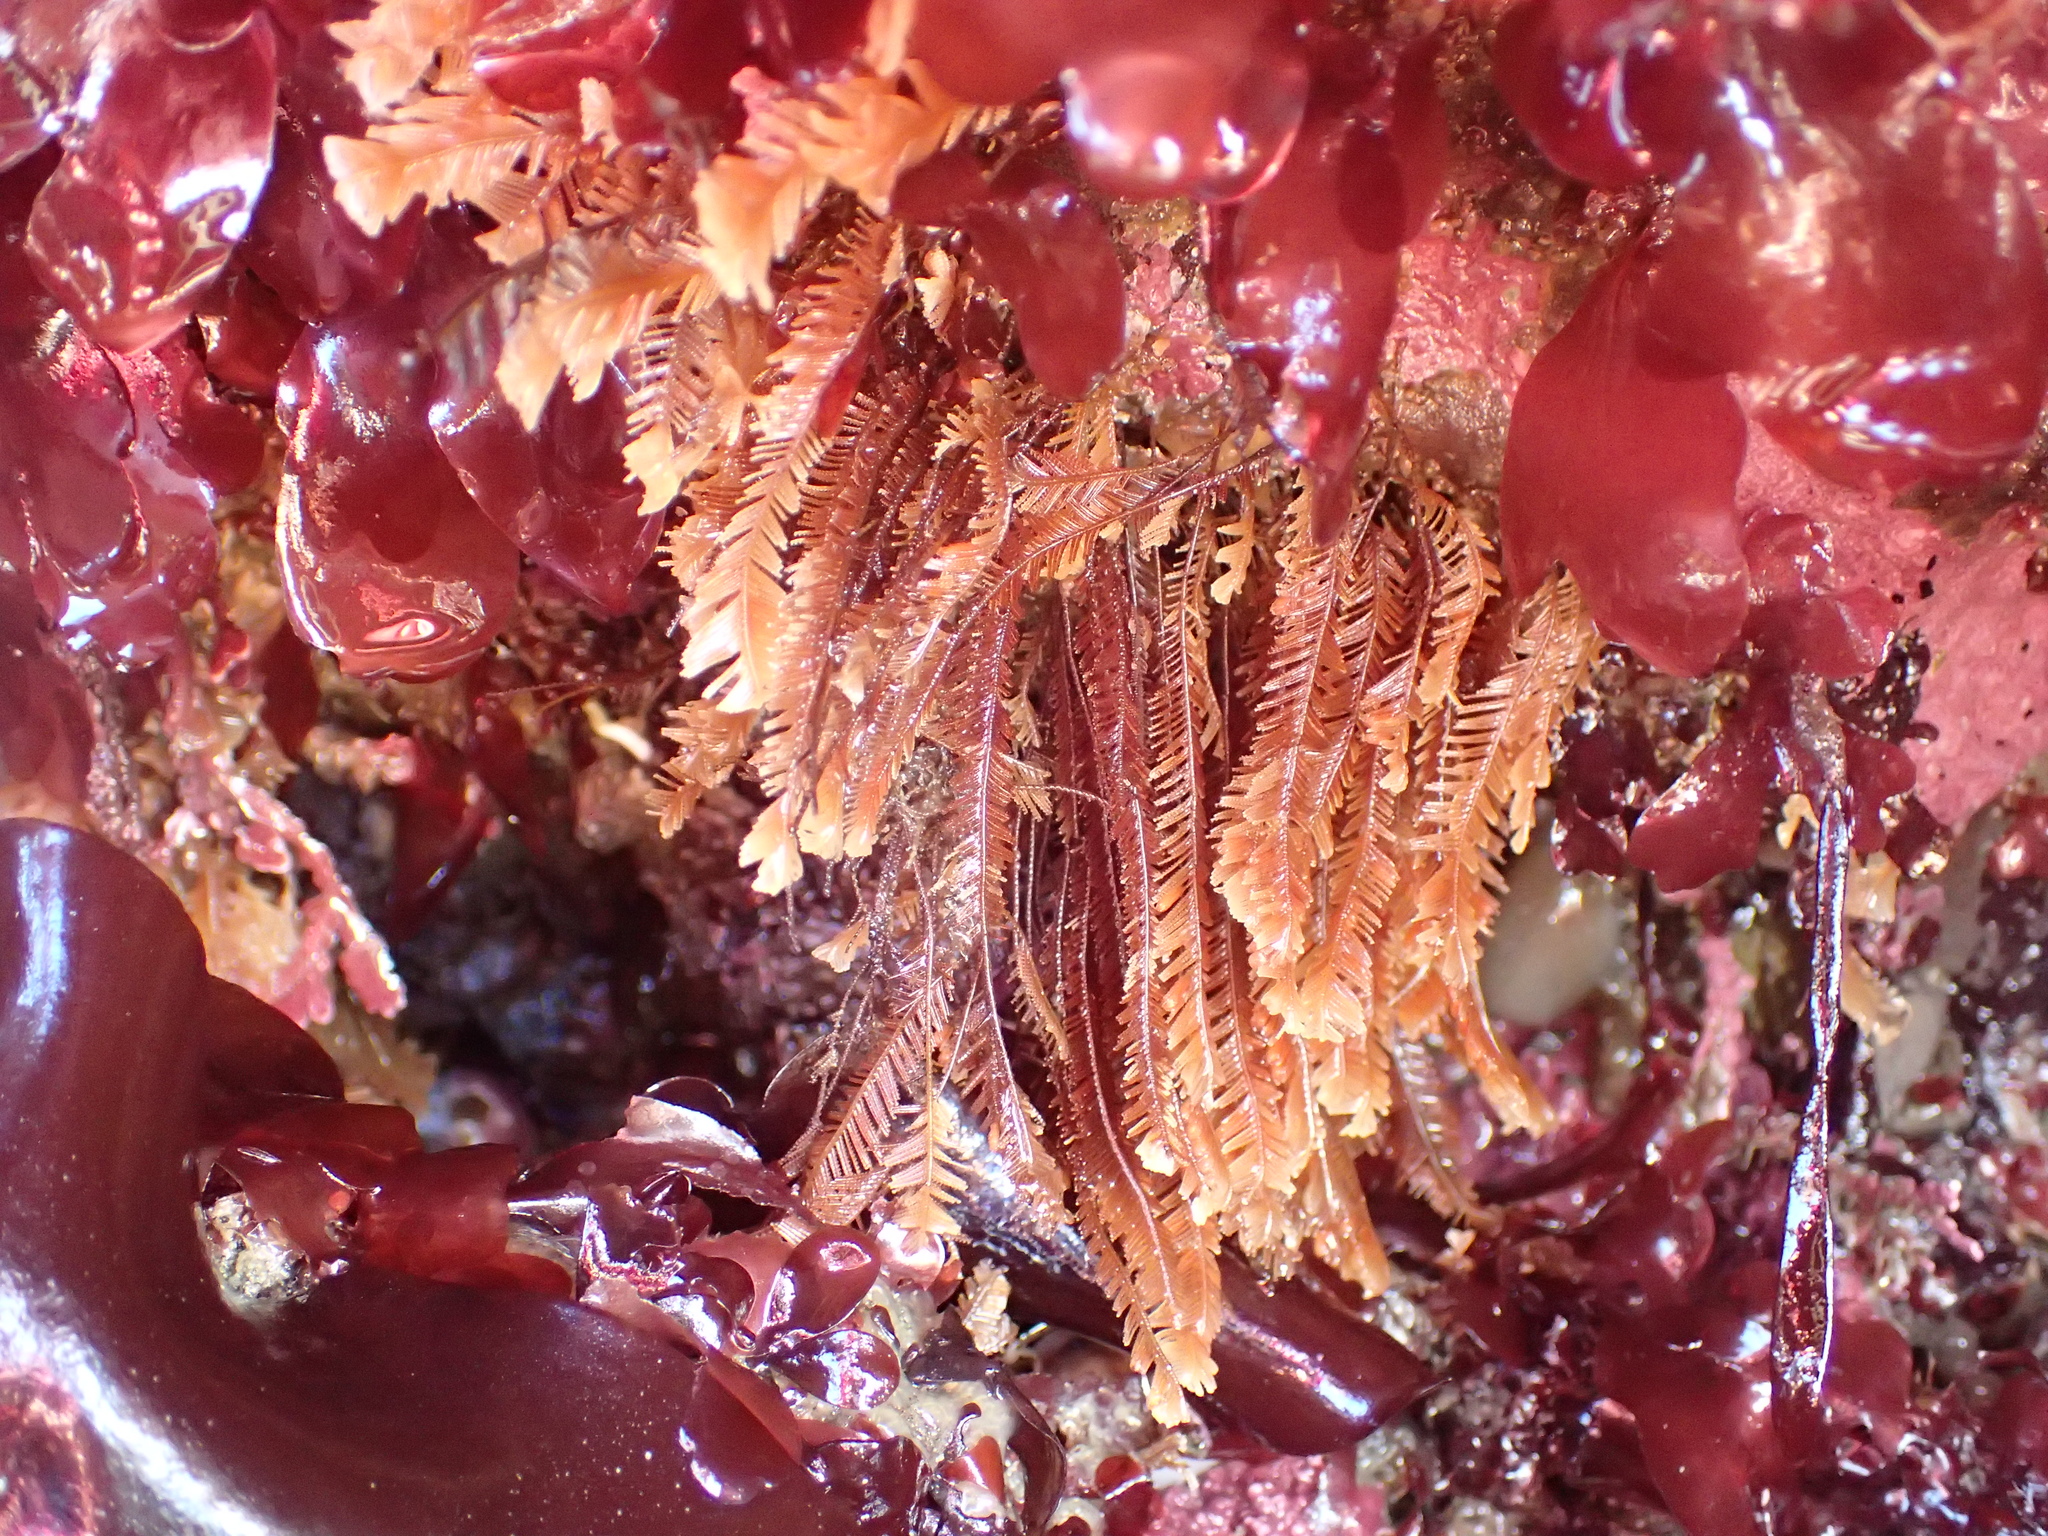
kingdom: Animalia
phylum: Cnidaria
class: Hydrozoa
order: Leptothecata
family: Aglaopheniidae
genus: Aglaophenia
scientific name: Aglaophenia struthionides
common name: Ostrichplume hydroid
